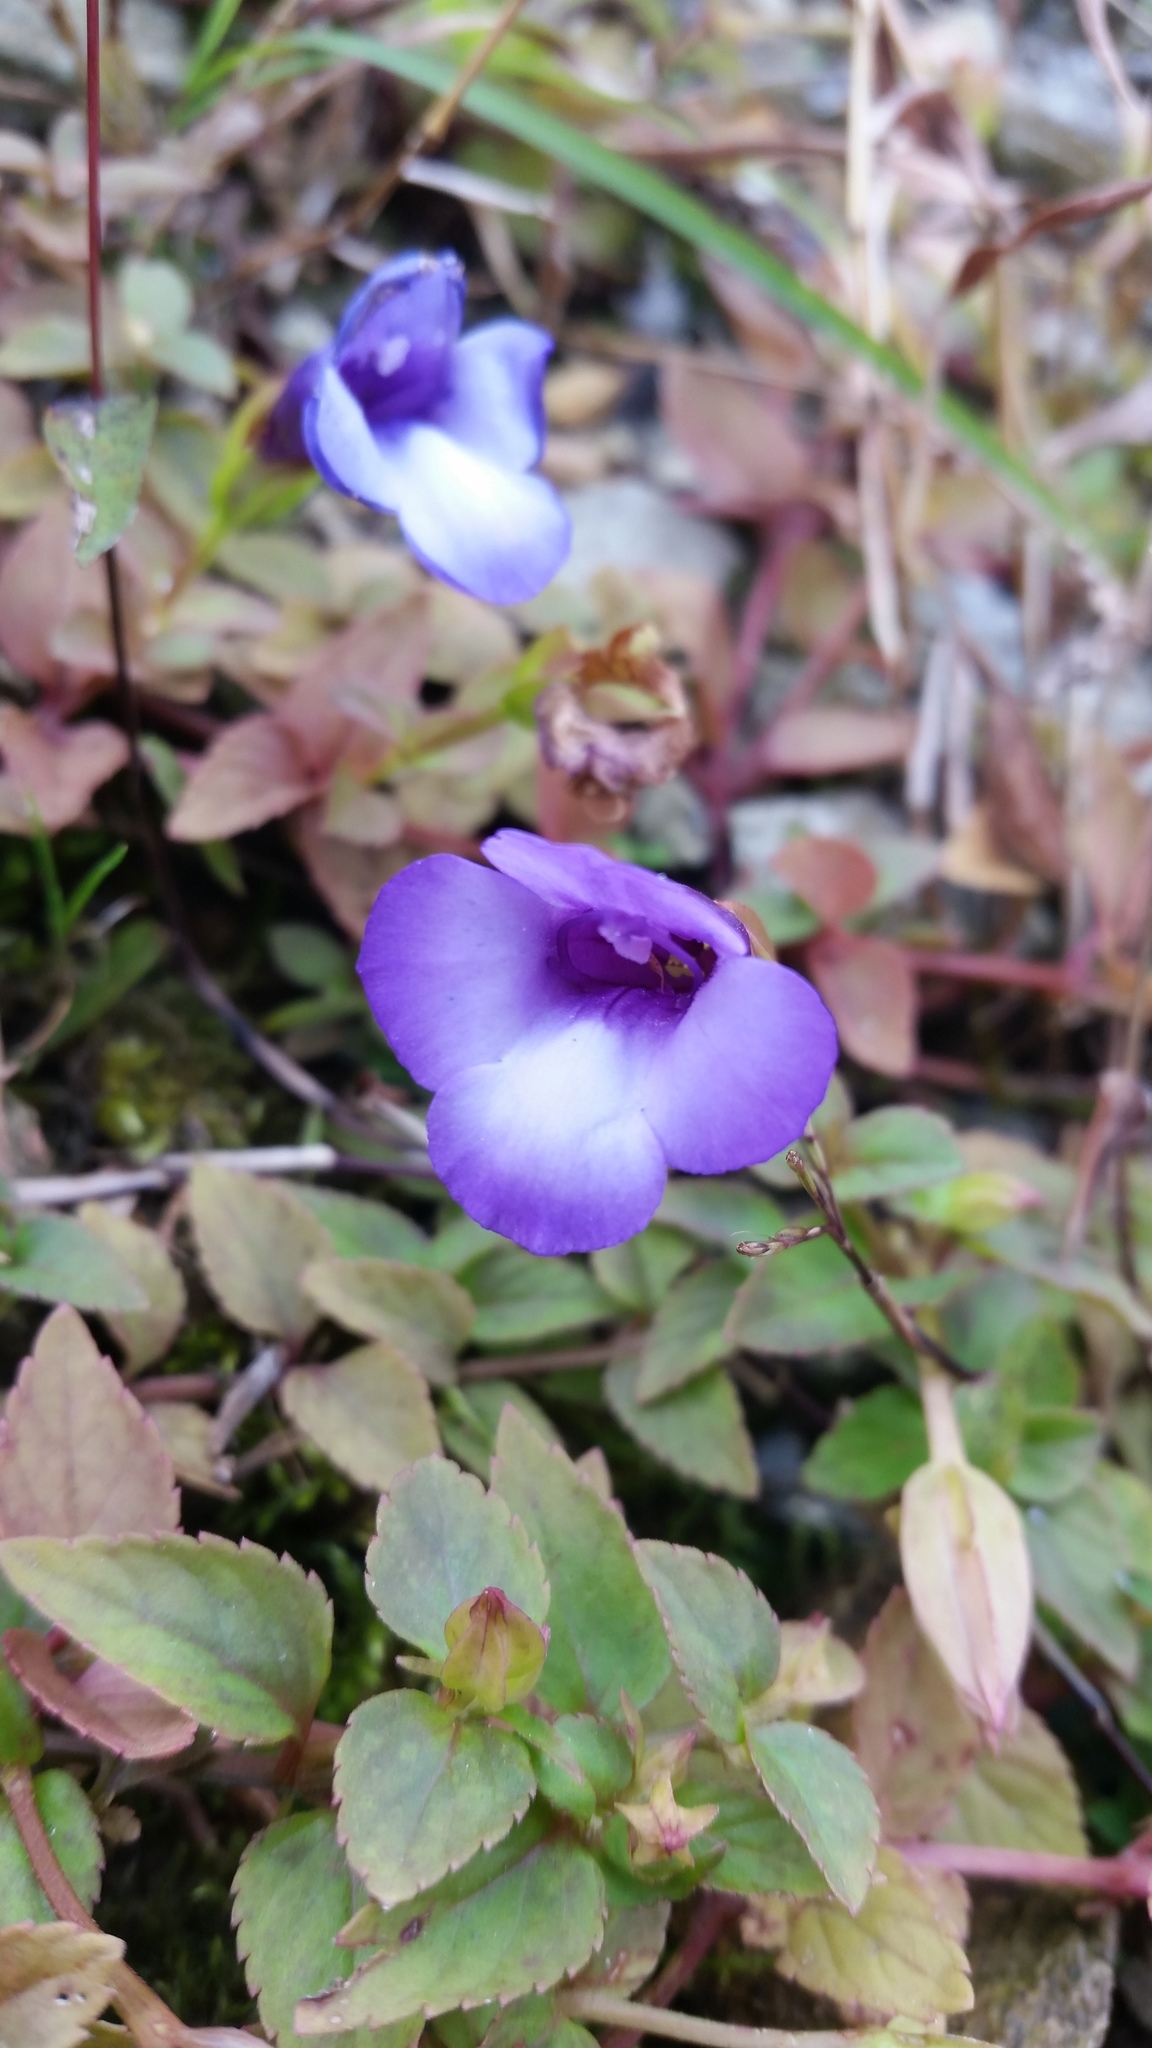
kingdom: Plantae
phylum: Tracheophyta
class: Magnoliopsida
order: Lamiales
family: Linderniaceae
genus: Torenia
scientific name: Torenia concolor
